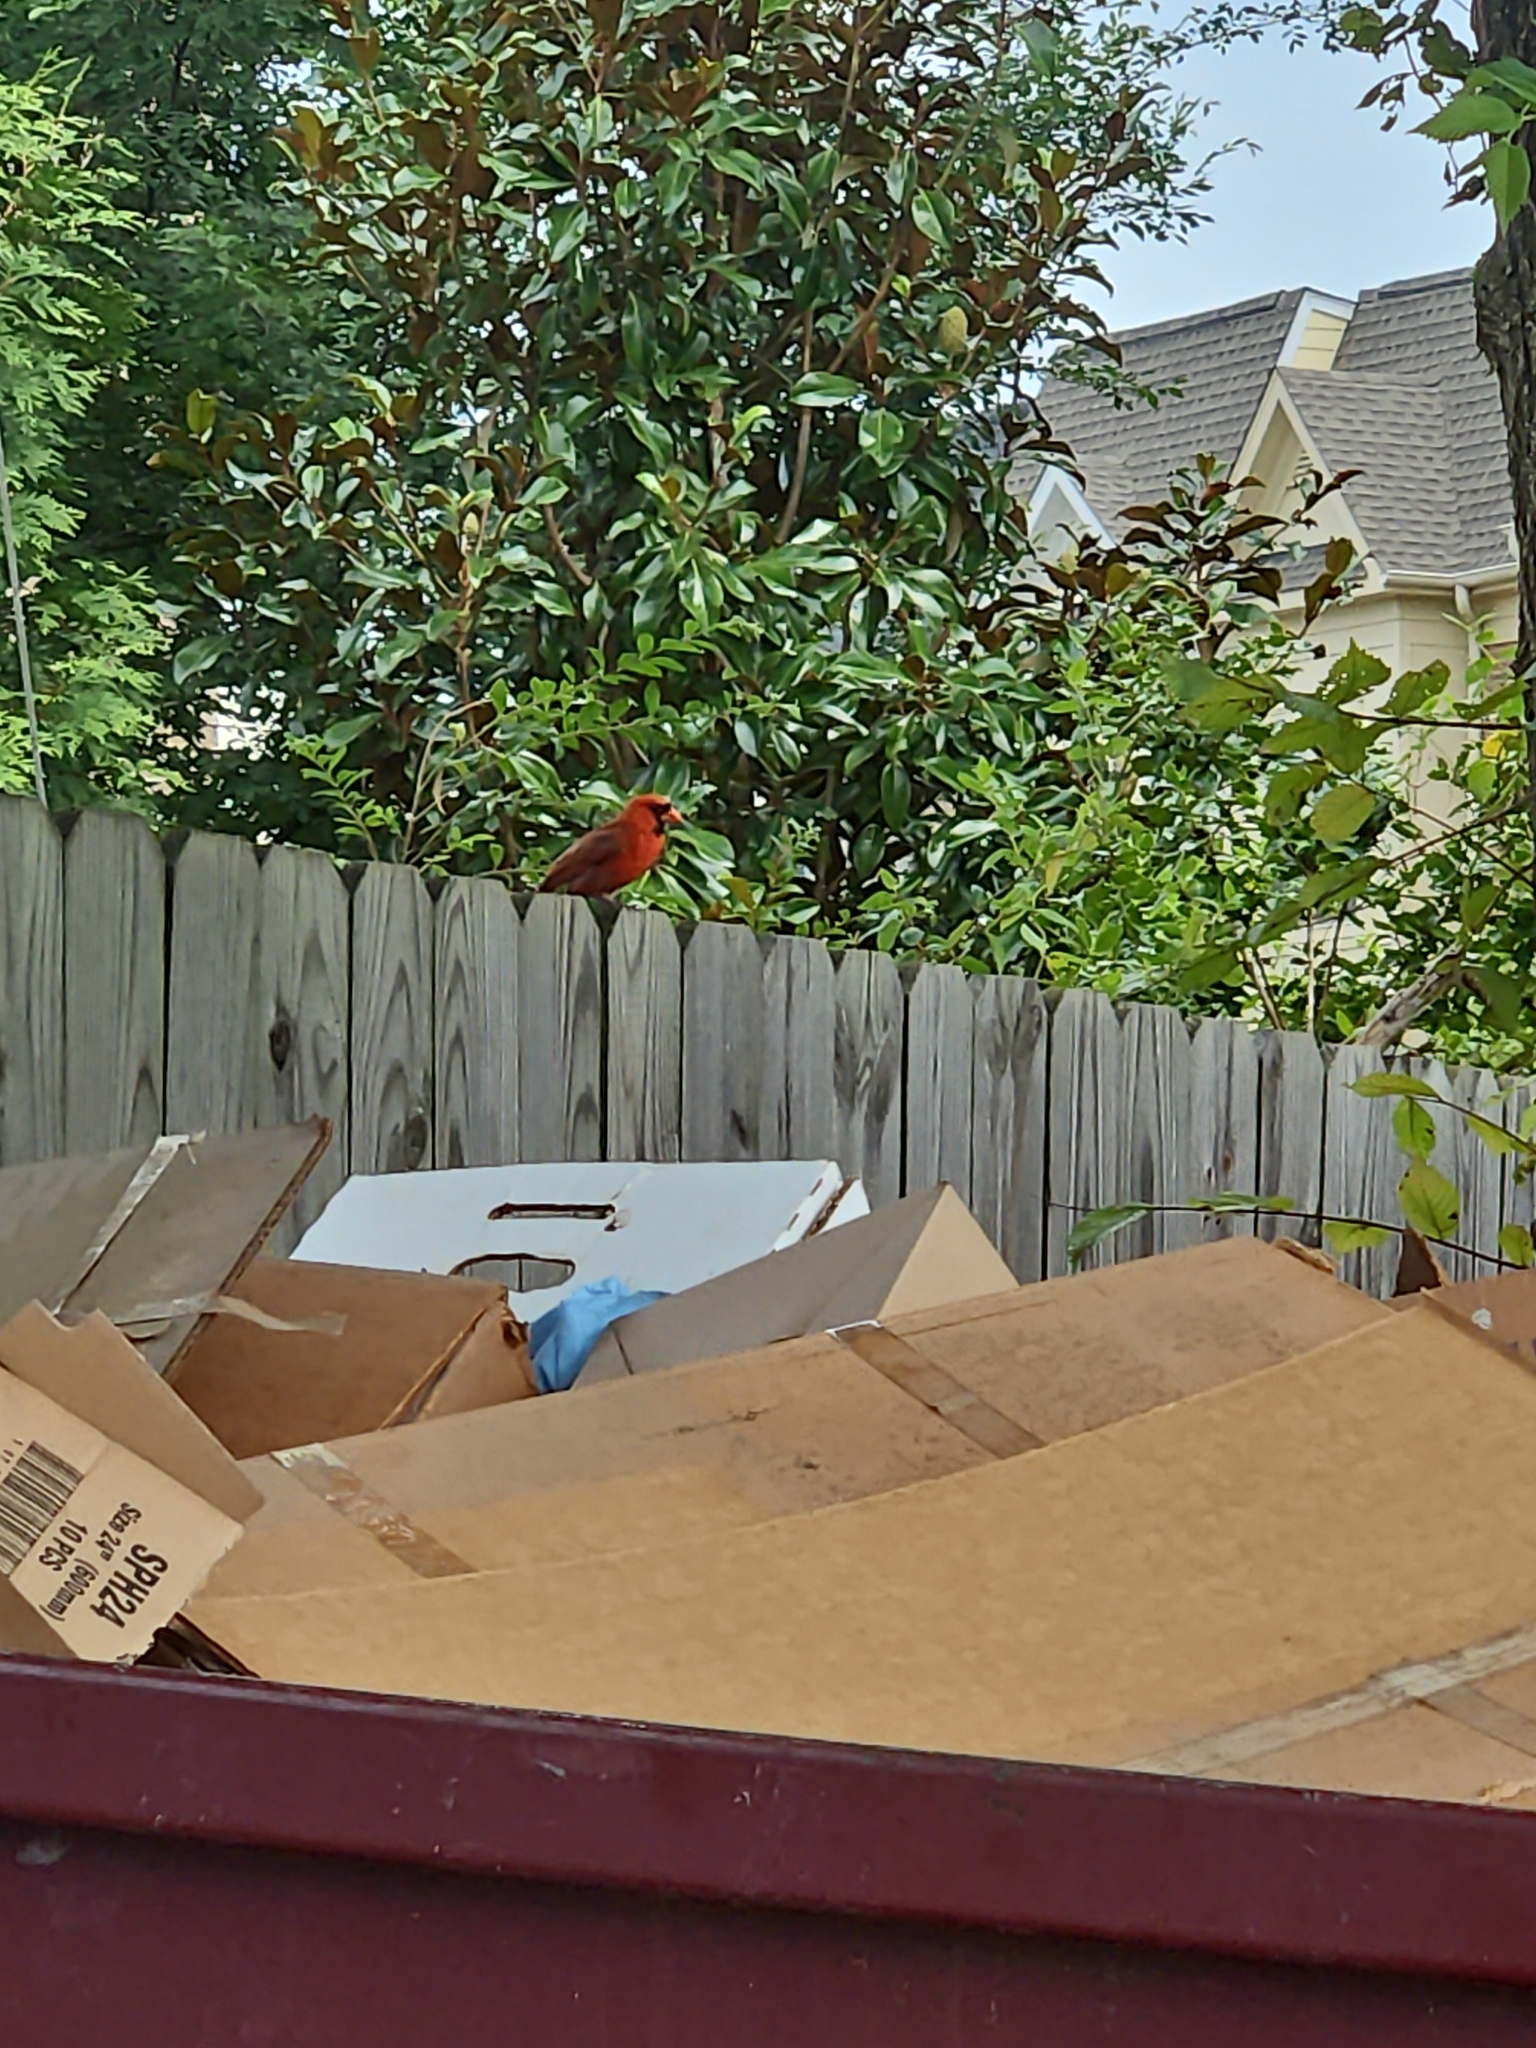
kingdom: Animalia
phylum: Chordata
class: Aves
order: Passeriformes
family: Cardinalidae
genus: Cardinalis
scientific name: Cardinalis cardinalis
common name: Northern cardinal
